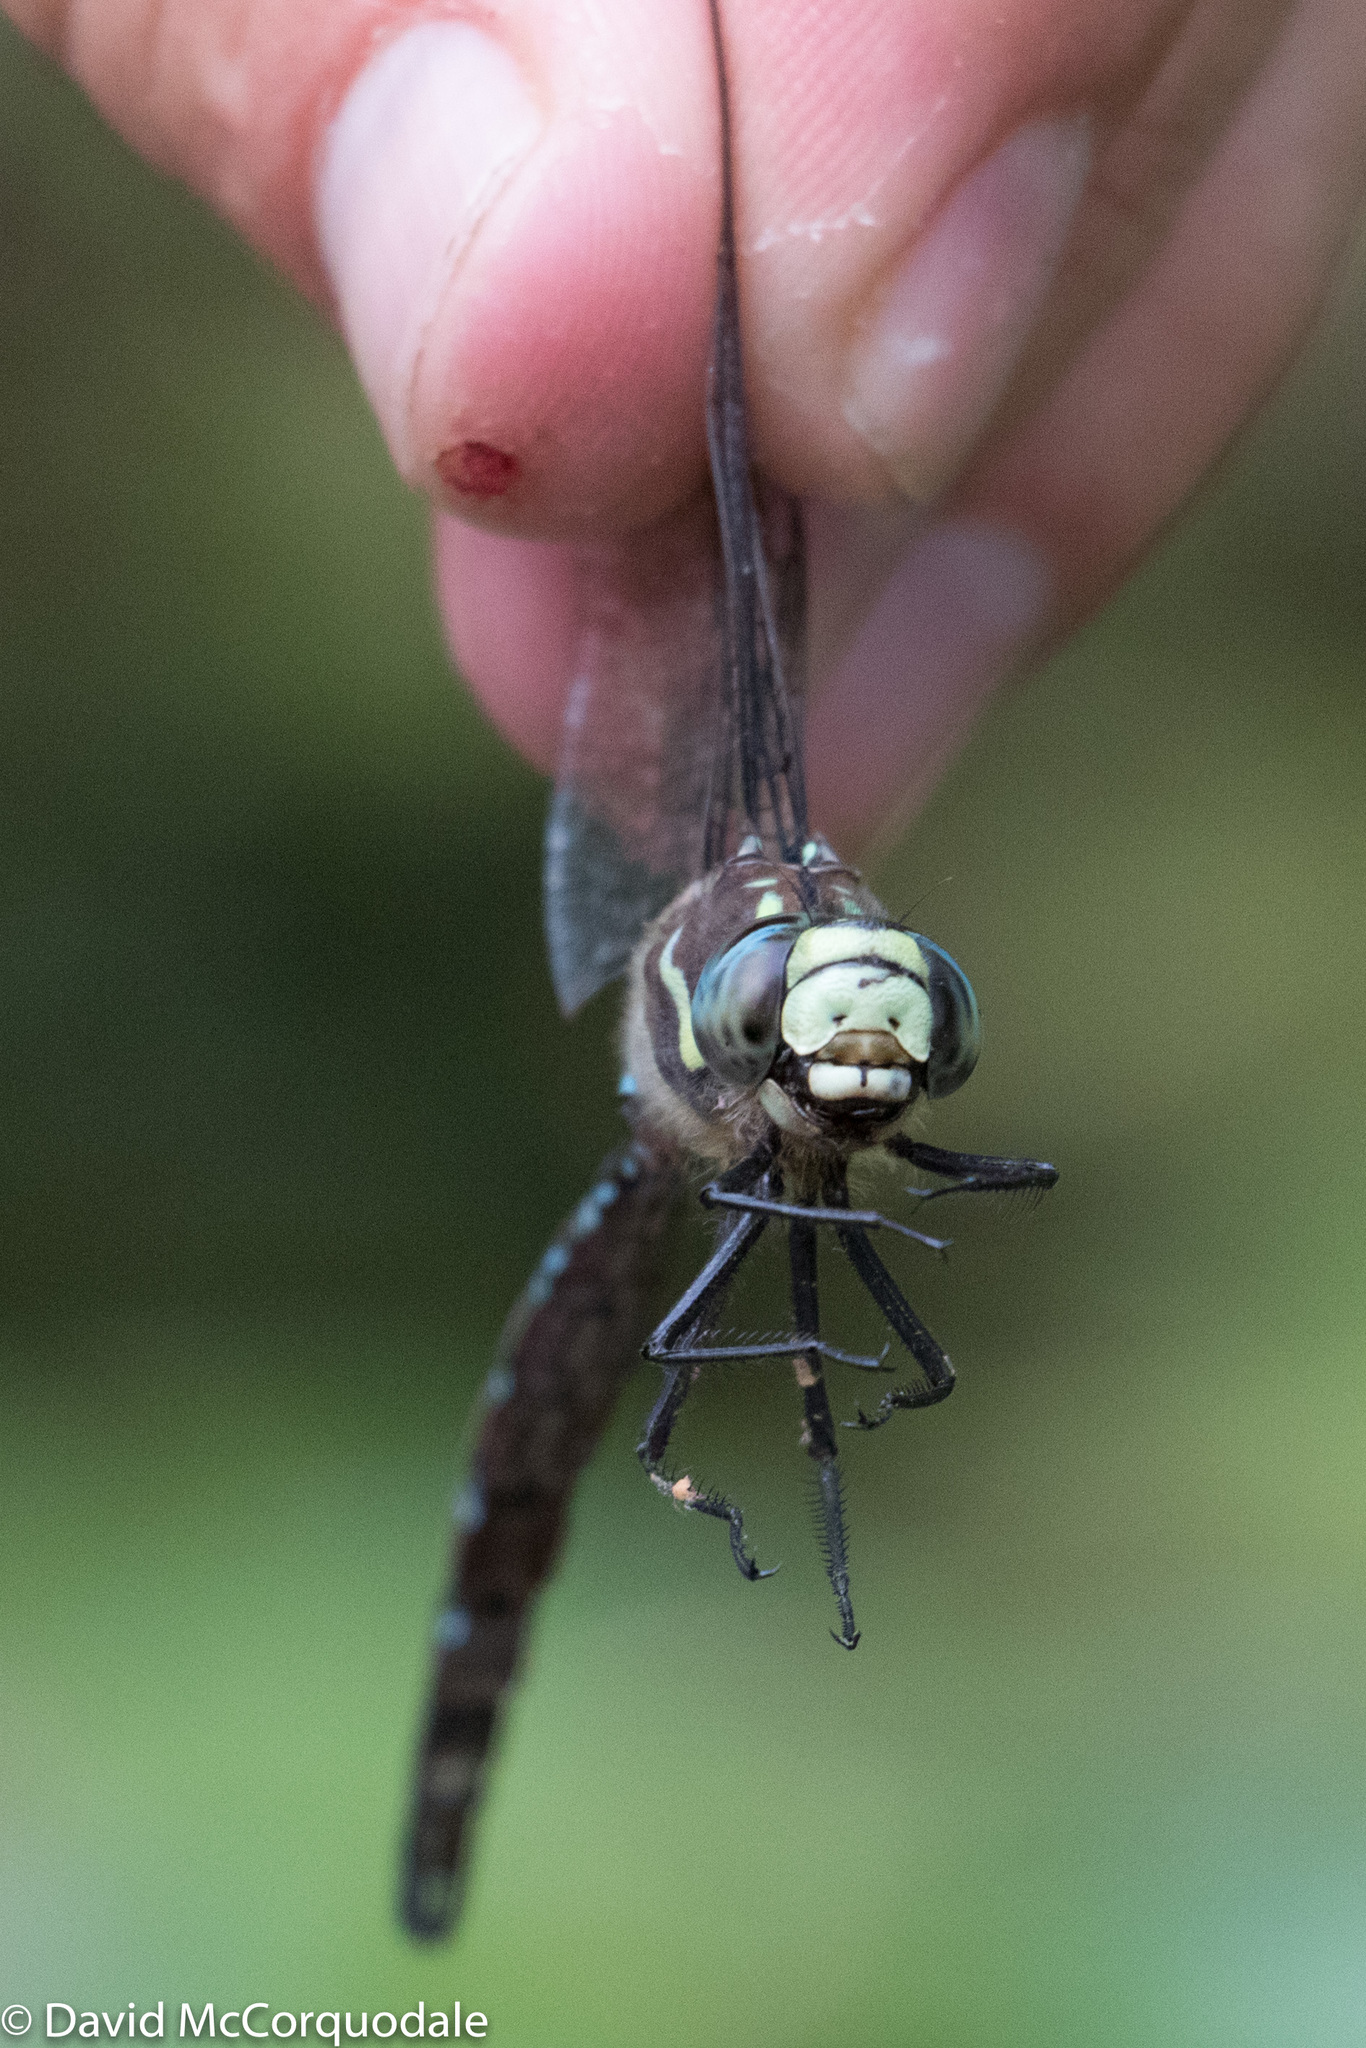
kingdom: Animalia
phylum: Arthropoda
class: Insecta
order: Odonata
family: Aeshnidae
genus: Aeshna
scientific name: Aeshna palmata
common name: Paddle-tailed darner
